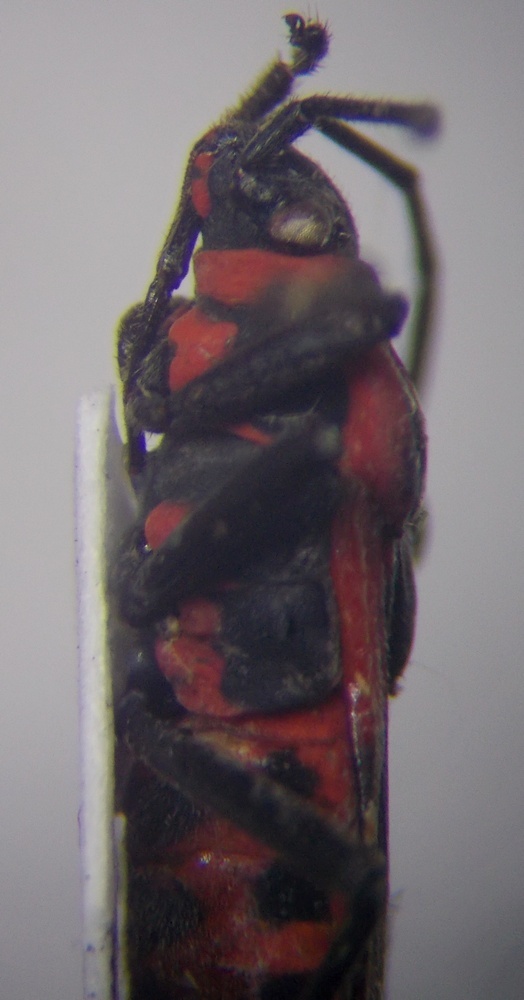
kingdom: Animalia
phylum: Arthropoda
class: Insecta
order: Hemiptera
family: Lygaeidae
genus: Tropidothorax
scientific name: Tropidothorax leucopterus
